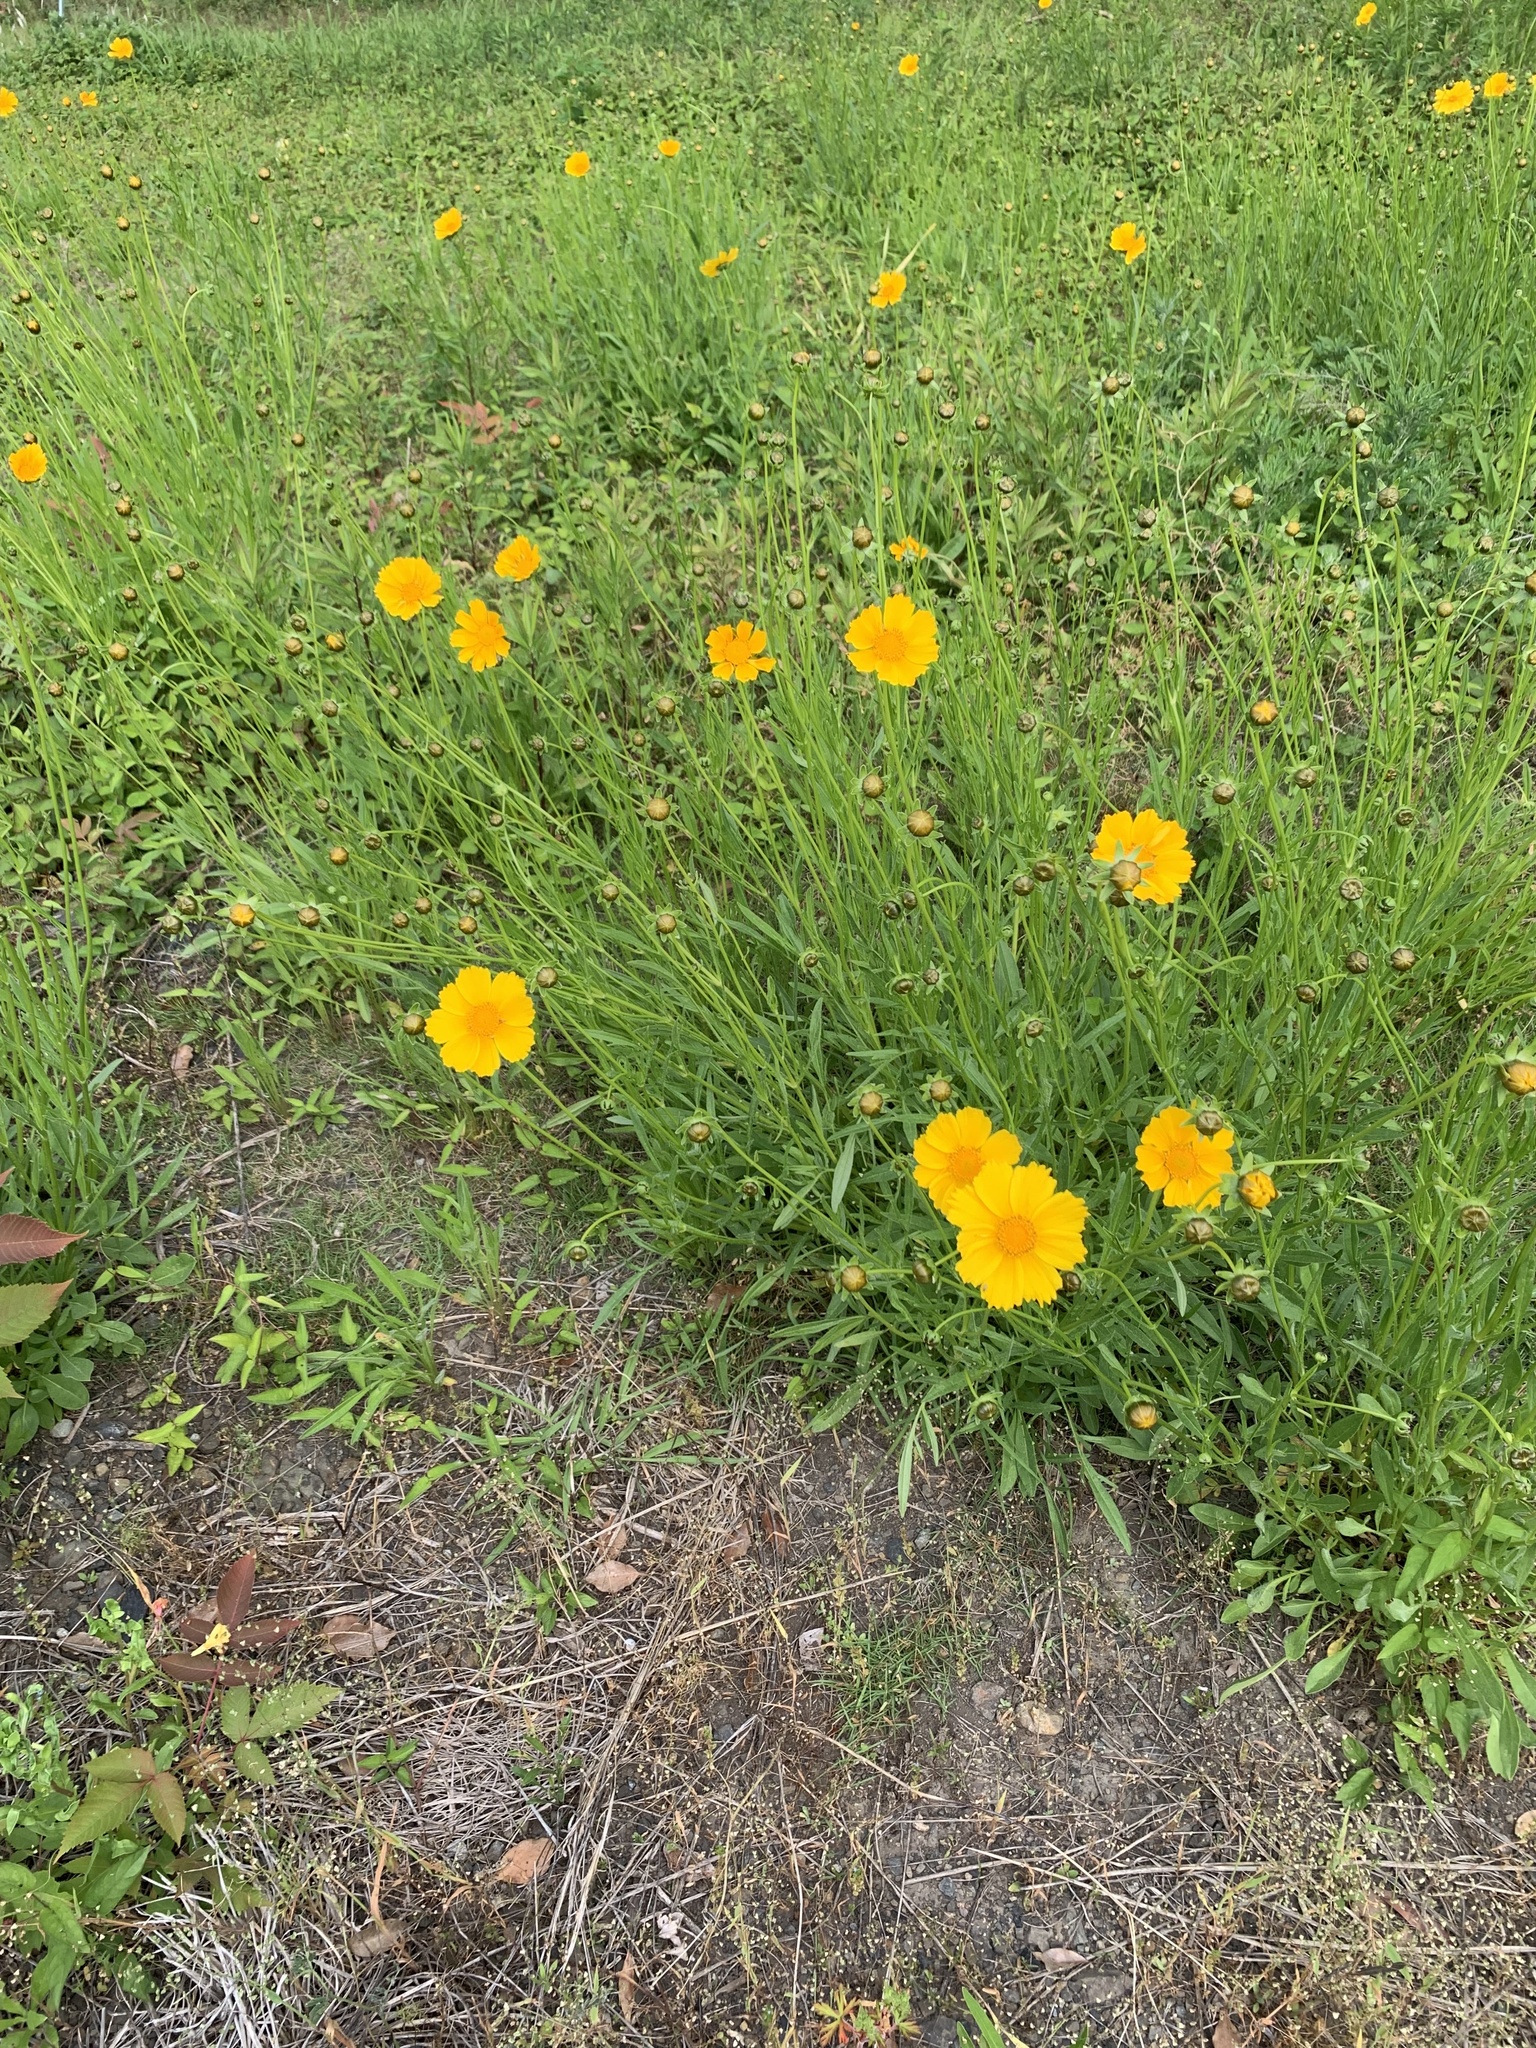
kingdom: Plantae
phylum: Tracheophyta
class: Magnoliopsida
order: Asterales
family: Asteraceae
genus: Coreopsis
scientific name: Coreopsis lanceolata
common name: Garden coreopsis
